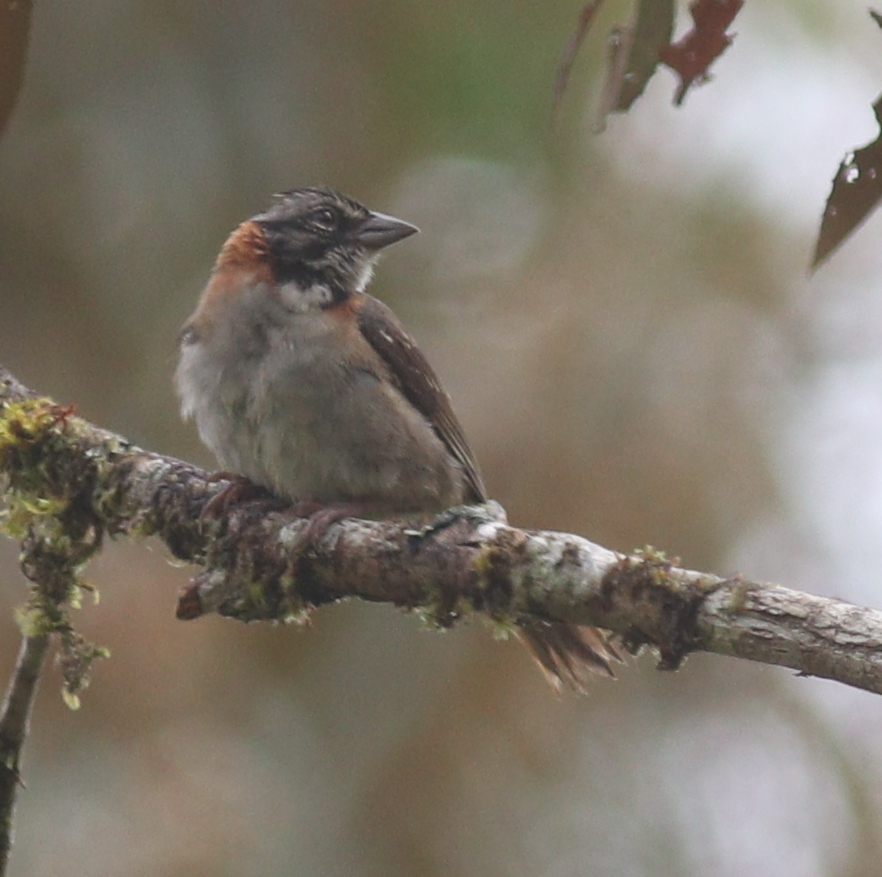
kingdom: Animalia
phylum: Chordata
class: Aves
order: Passeriformes
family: Passerellidae
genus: Zonotrichia
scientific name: Zonotrichia capensis
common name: Rufous-collared sparrow
